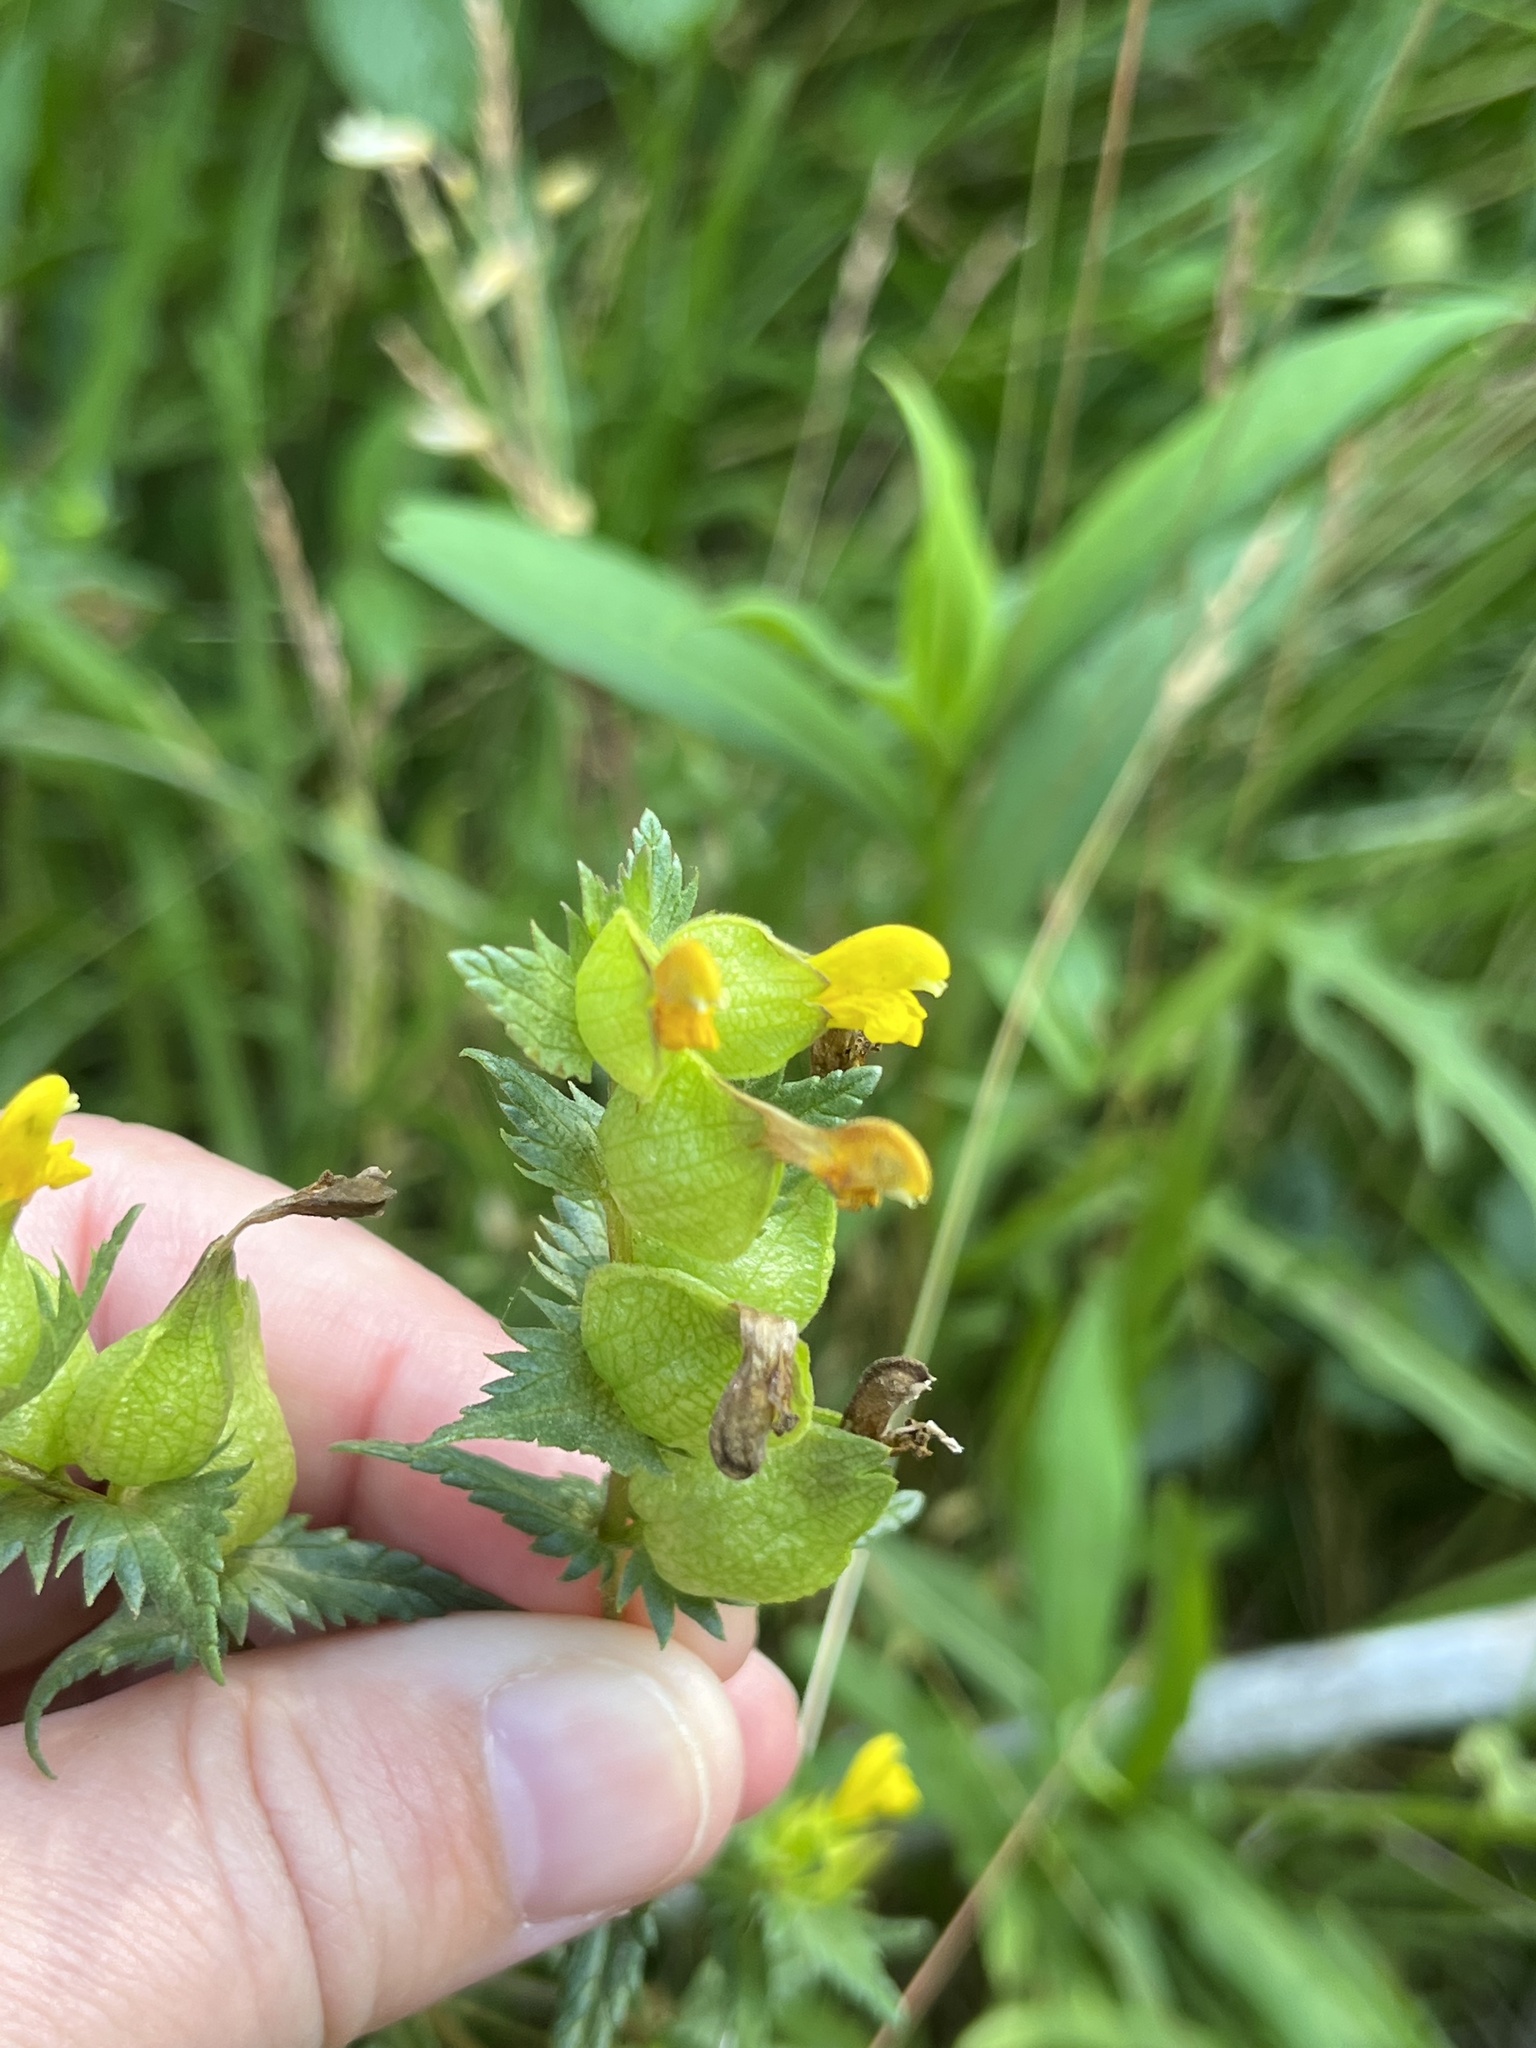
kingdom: Plantae
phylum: Tracheophyta
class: Magnoliopsida
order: Lamiales
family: Orobanchaceae
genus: Rhinanthus
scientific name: Rhinanthus minor
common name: Yellow-rattle
